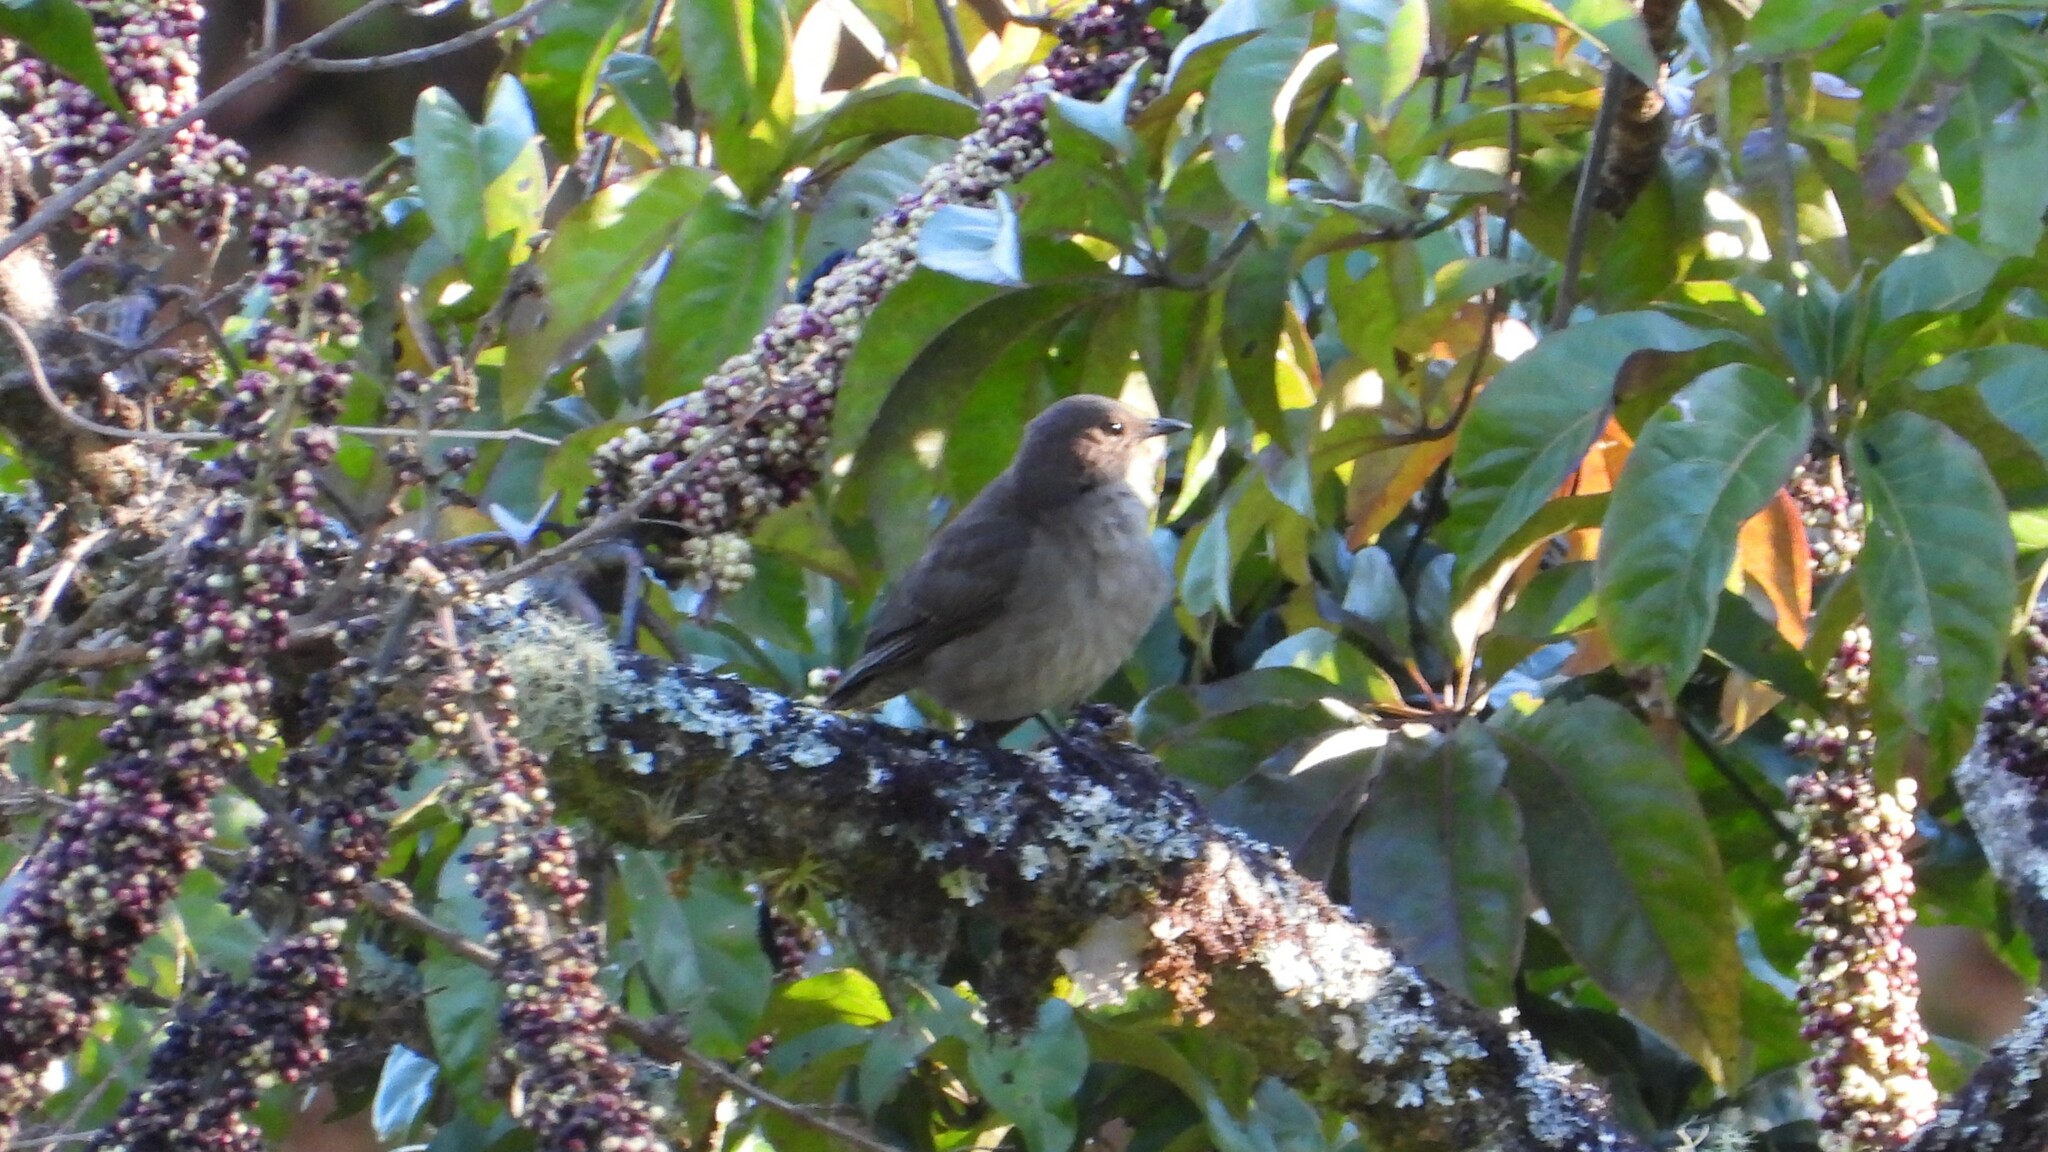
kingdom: Animalia
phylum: Chordata
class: Aves
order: Passeriformes
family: Turdidae
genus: Turdus
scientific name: Turdus plebejus
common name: Mountain thrush
